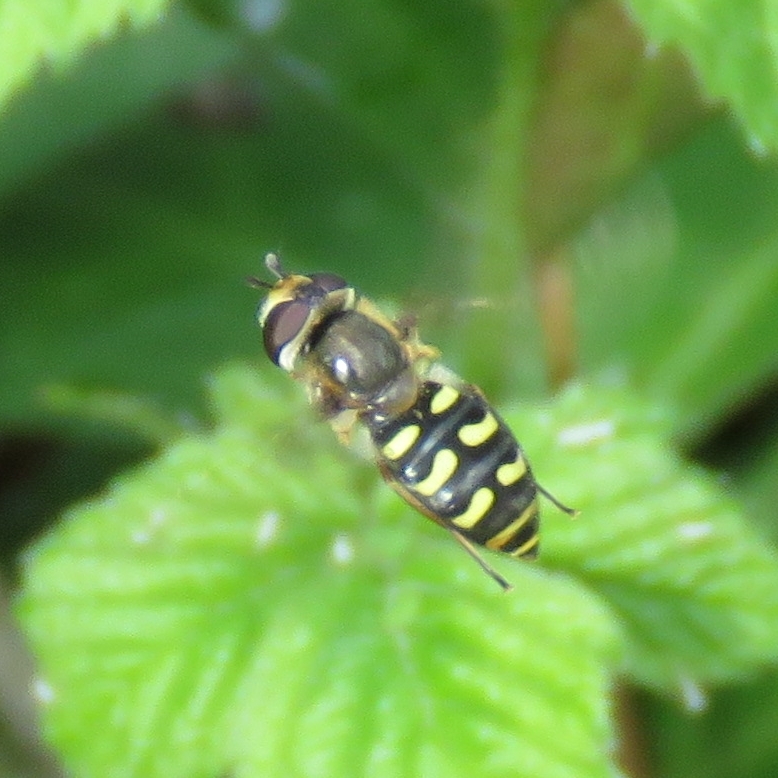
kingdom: Animalia
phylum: Arthropoda
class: Insecta
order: Diptera
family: Syrphidae
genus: Eupeodes
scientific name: Eupeodes
